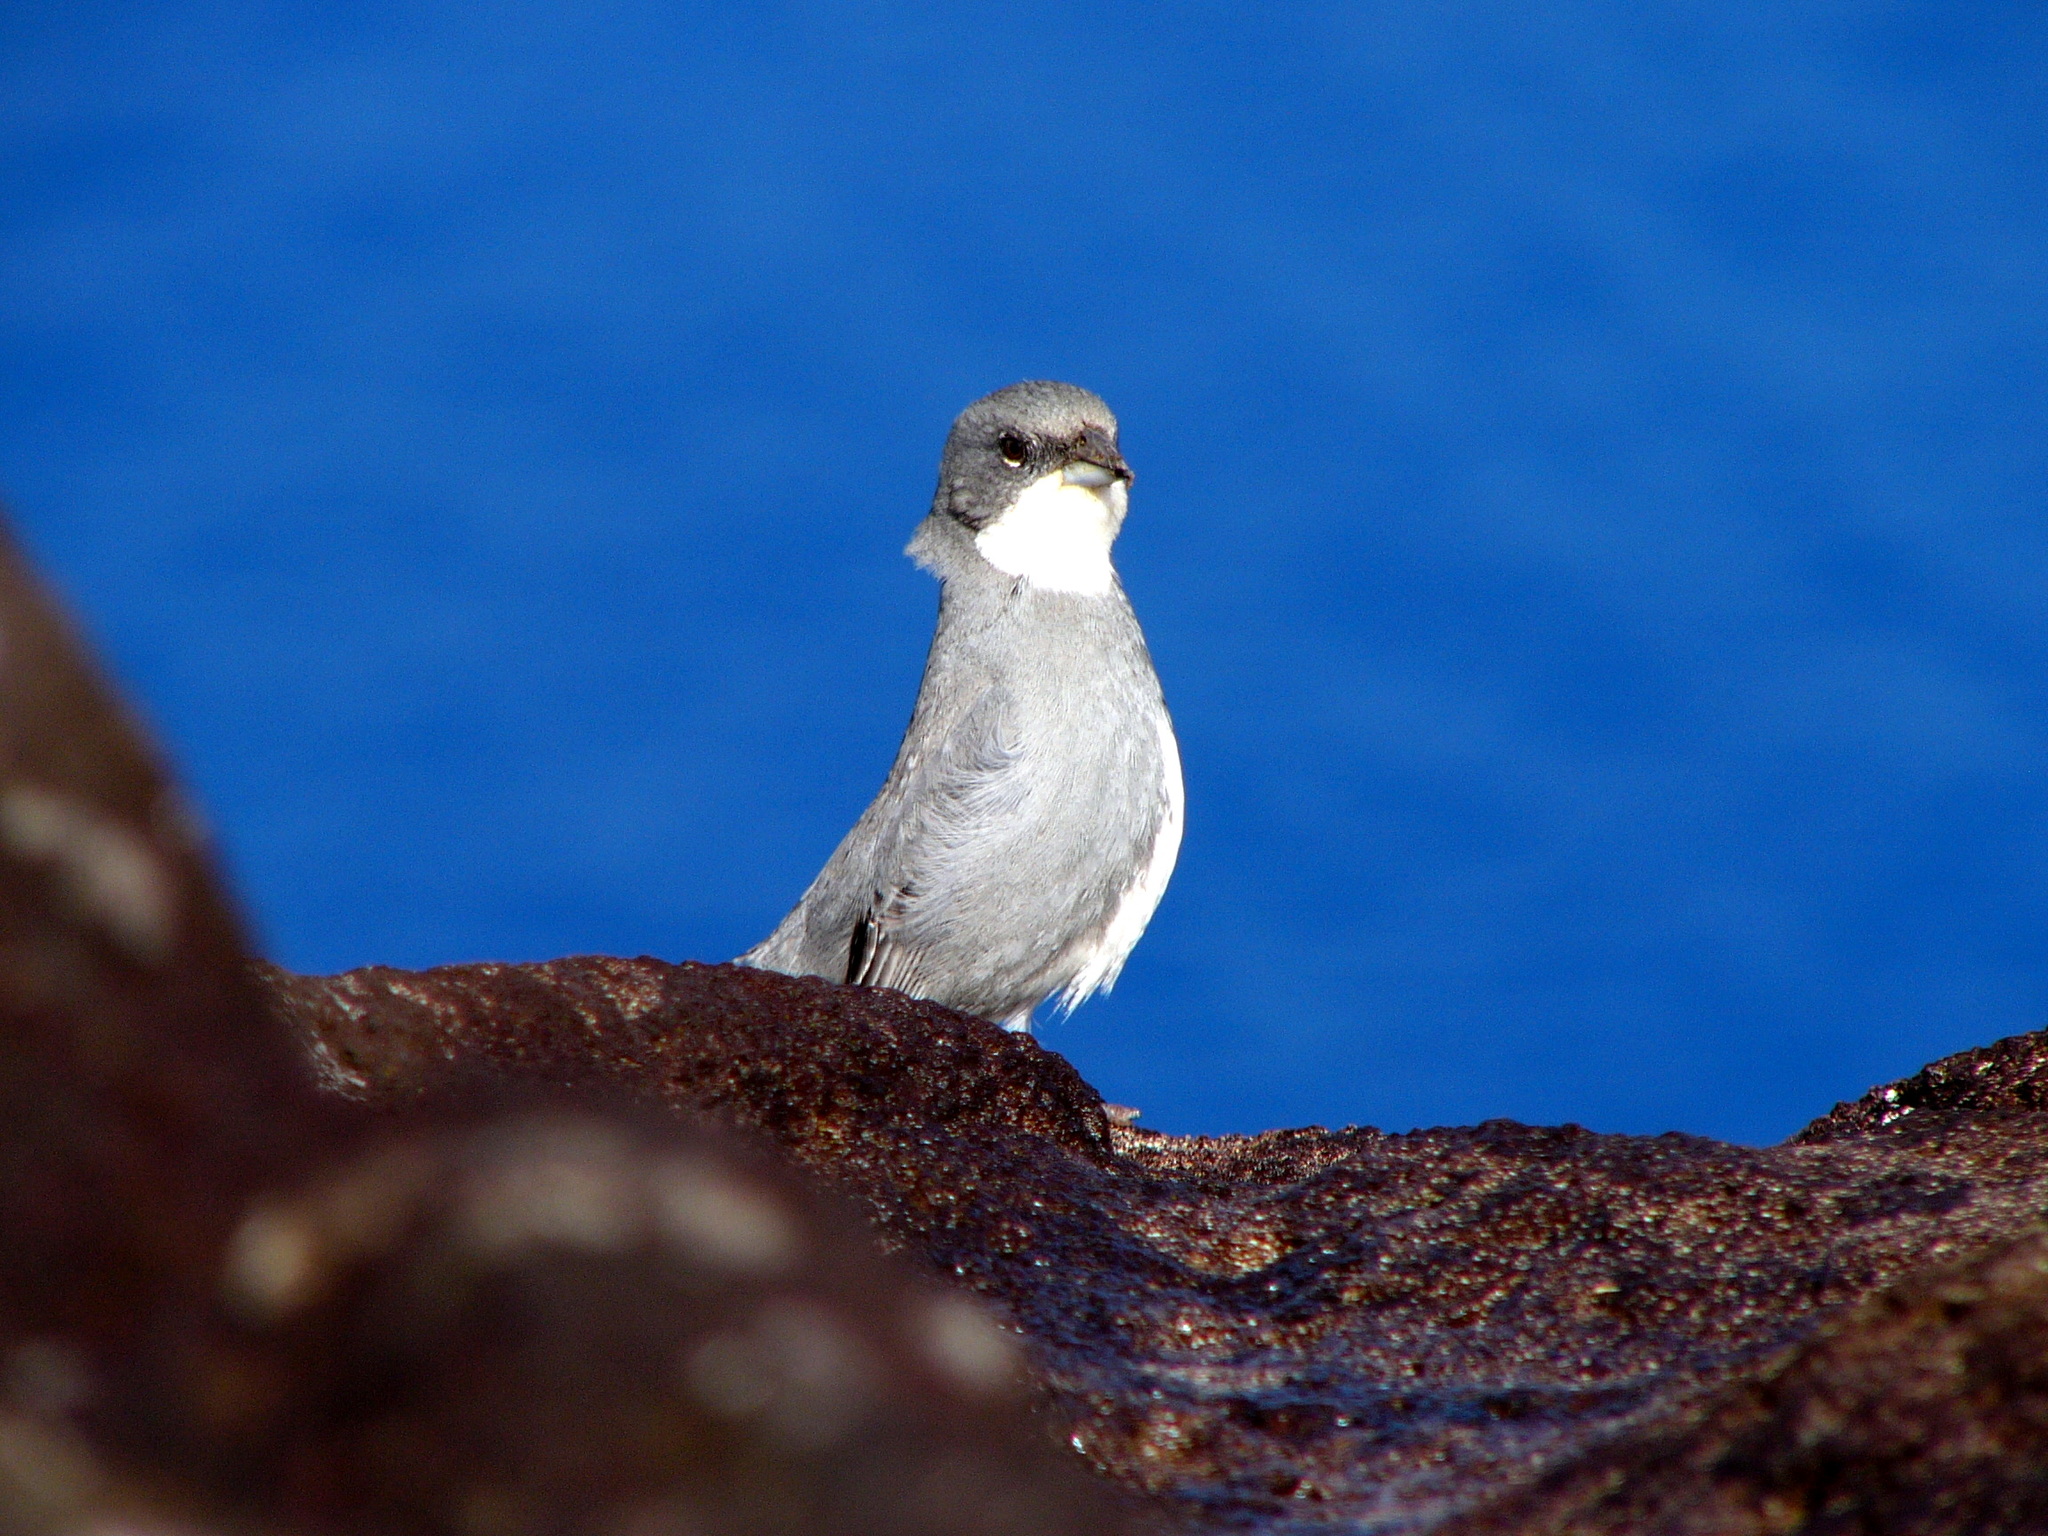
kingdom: Animalia
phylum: Chordata
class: Aves
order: Passeriformes
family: Thraupidae
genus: Diuca
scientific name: Diuca diuca
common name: Common diuca finch
